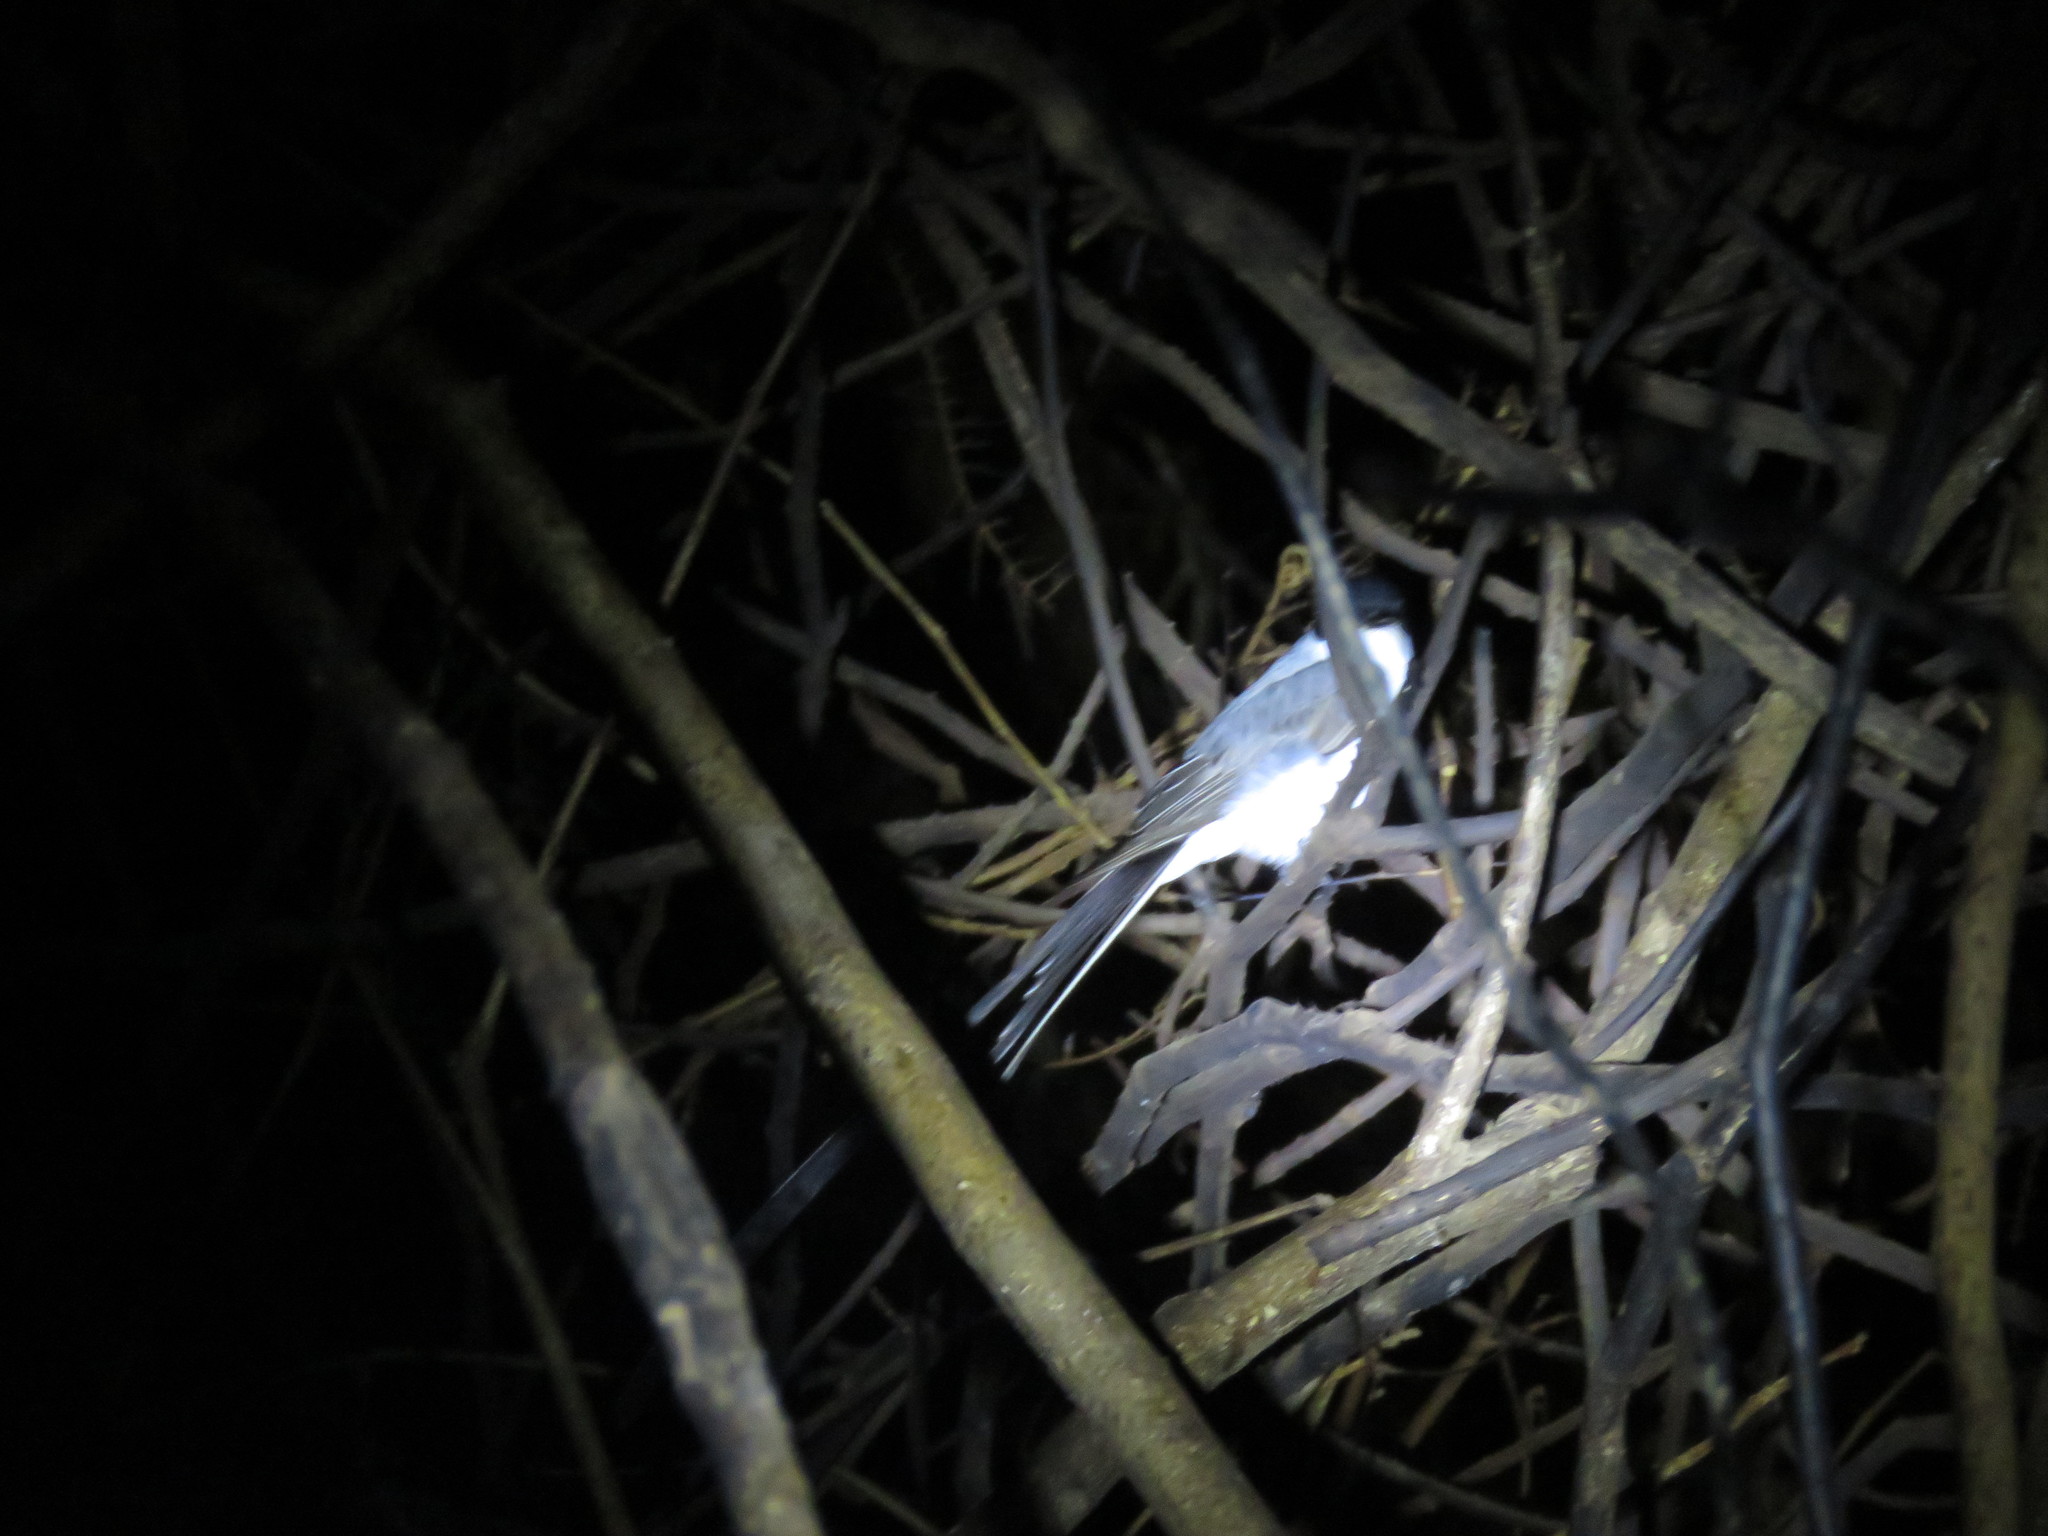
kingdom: Animalia
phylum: Chordata
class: Aves
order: Passeriformes
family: Tyrannidae
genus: Tyrannus
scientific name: Tyrannus savana
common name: Fork-tailed flycatcher
